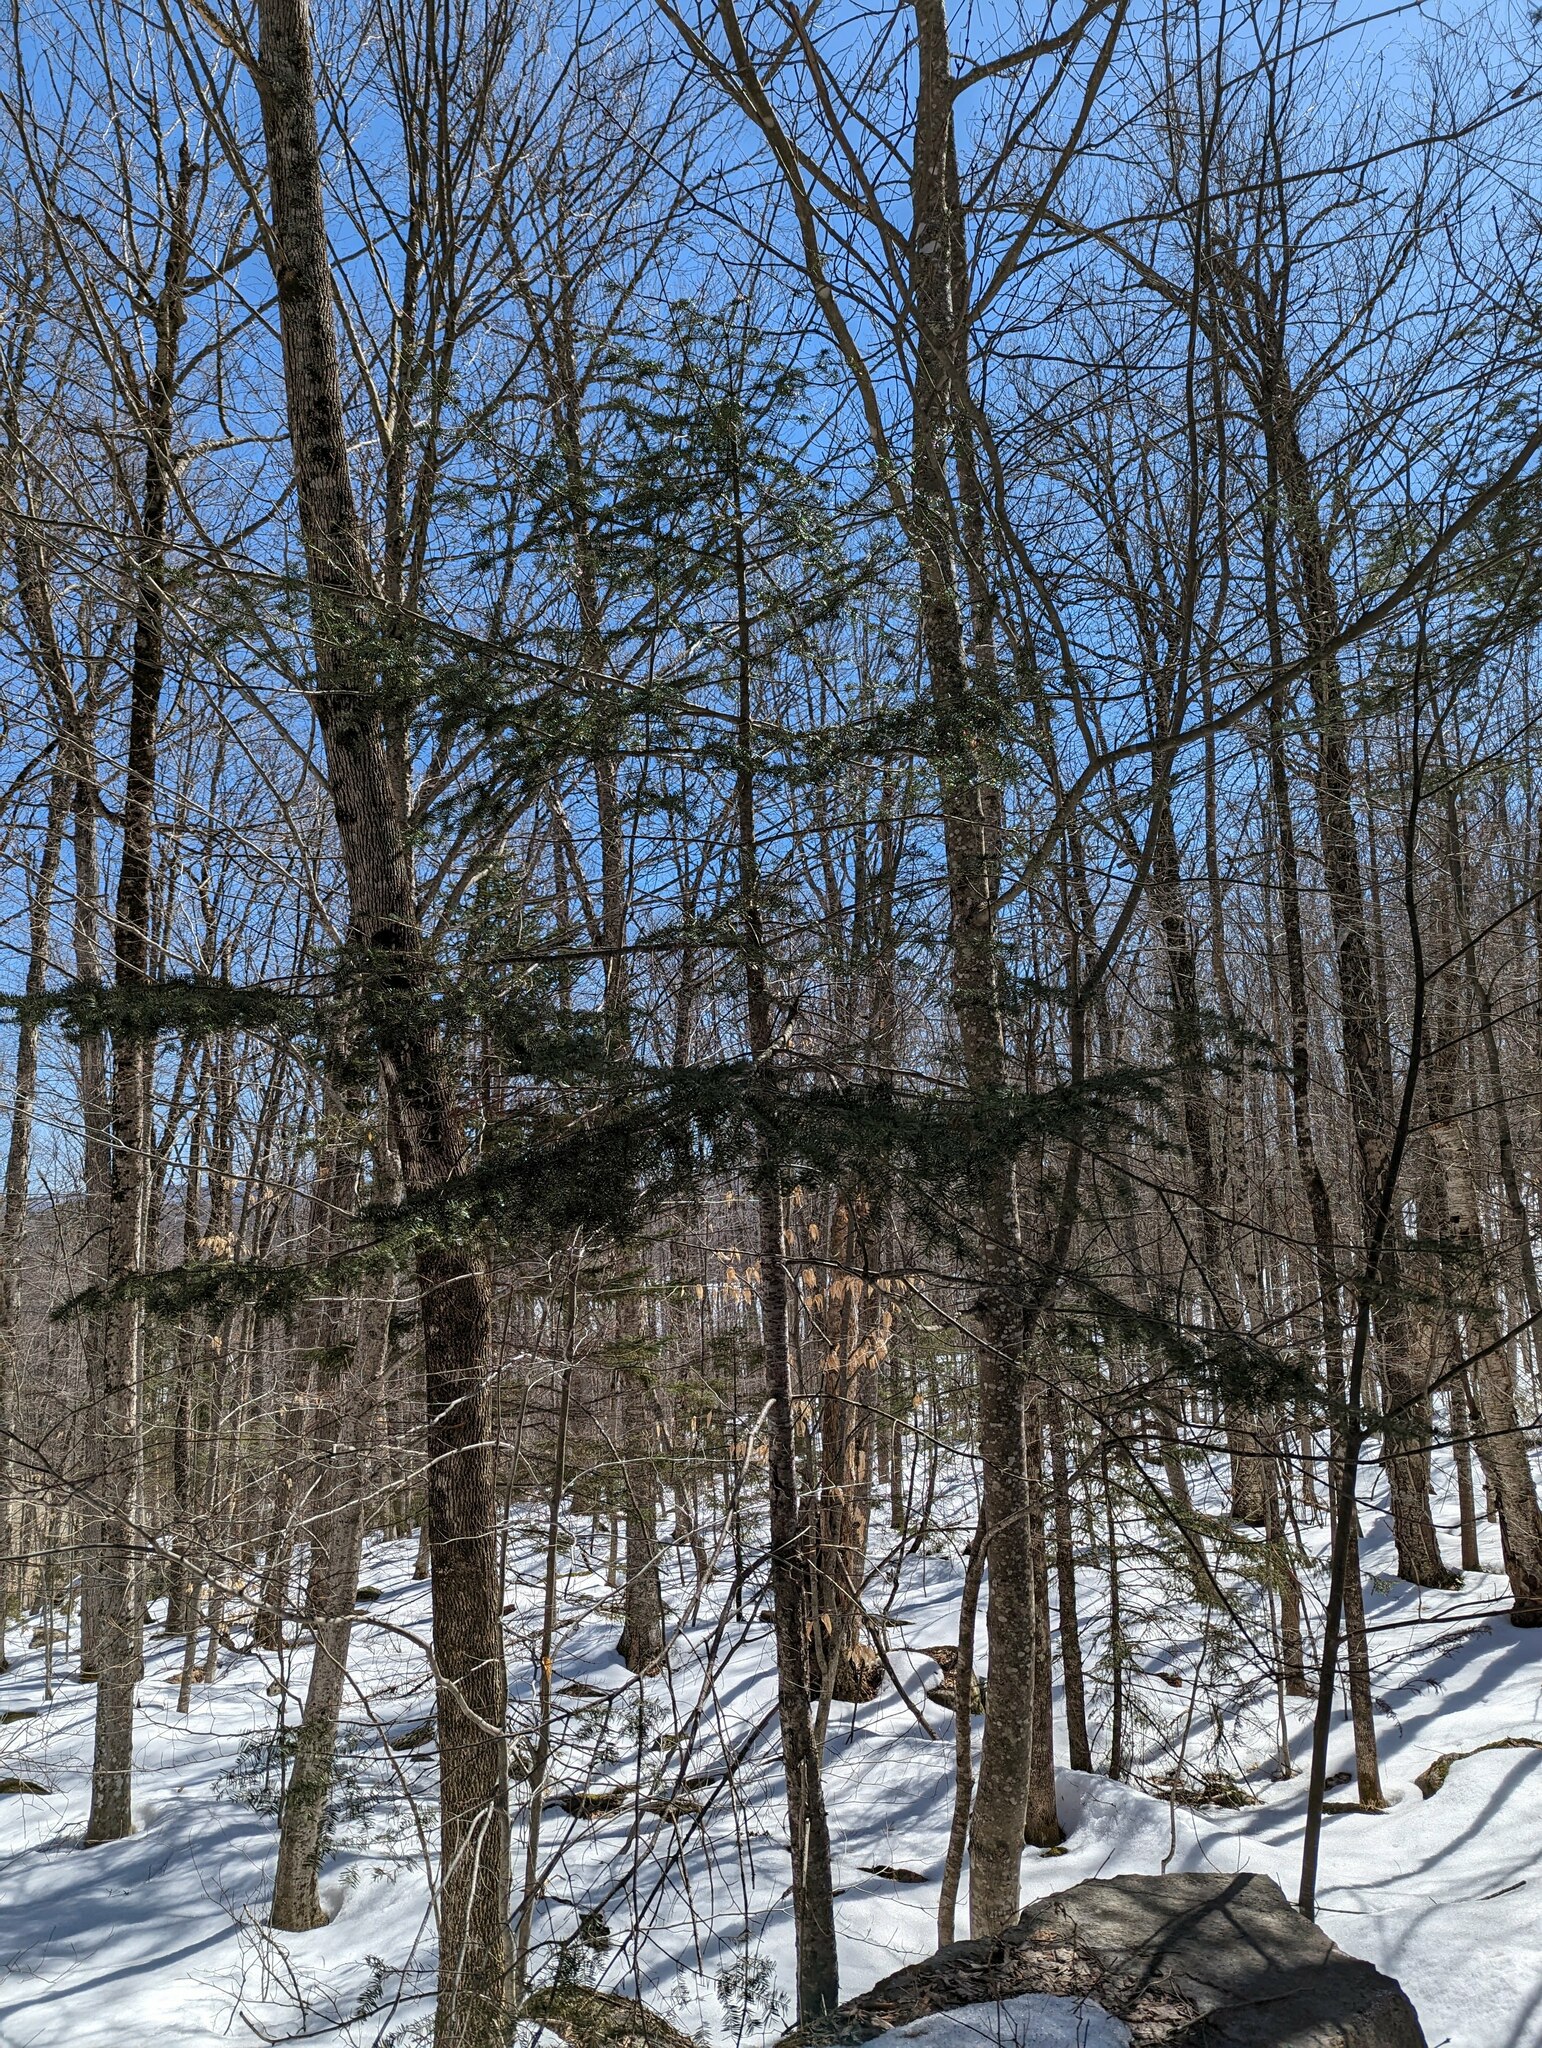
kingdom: Plantae
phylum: Tracheophyta
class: Pinopsida
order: Pinales
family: Pinaceae
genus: Abies
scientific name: Abies balsamea
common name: Balsam fir
